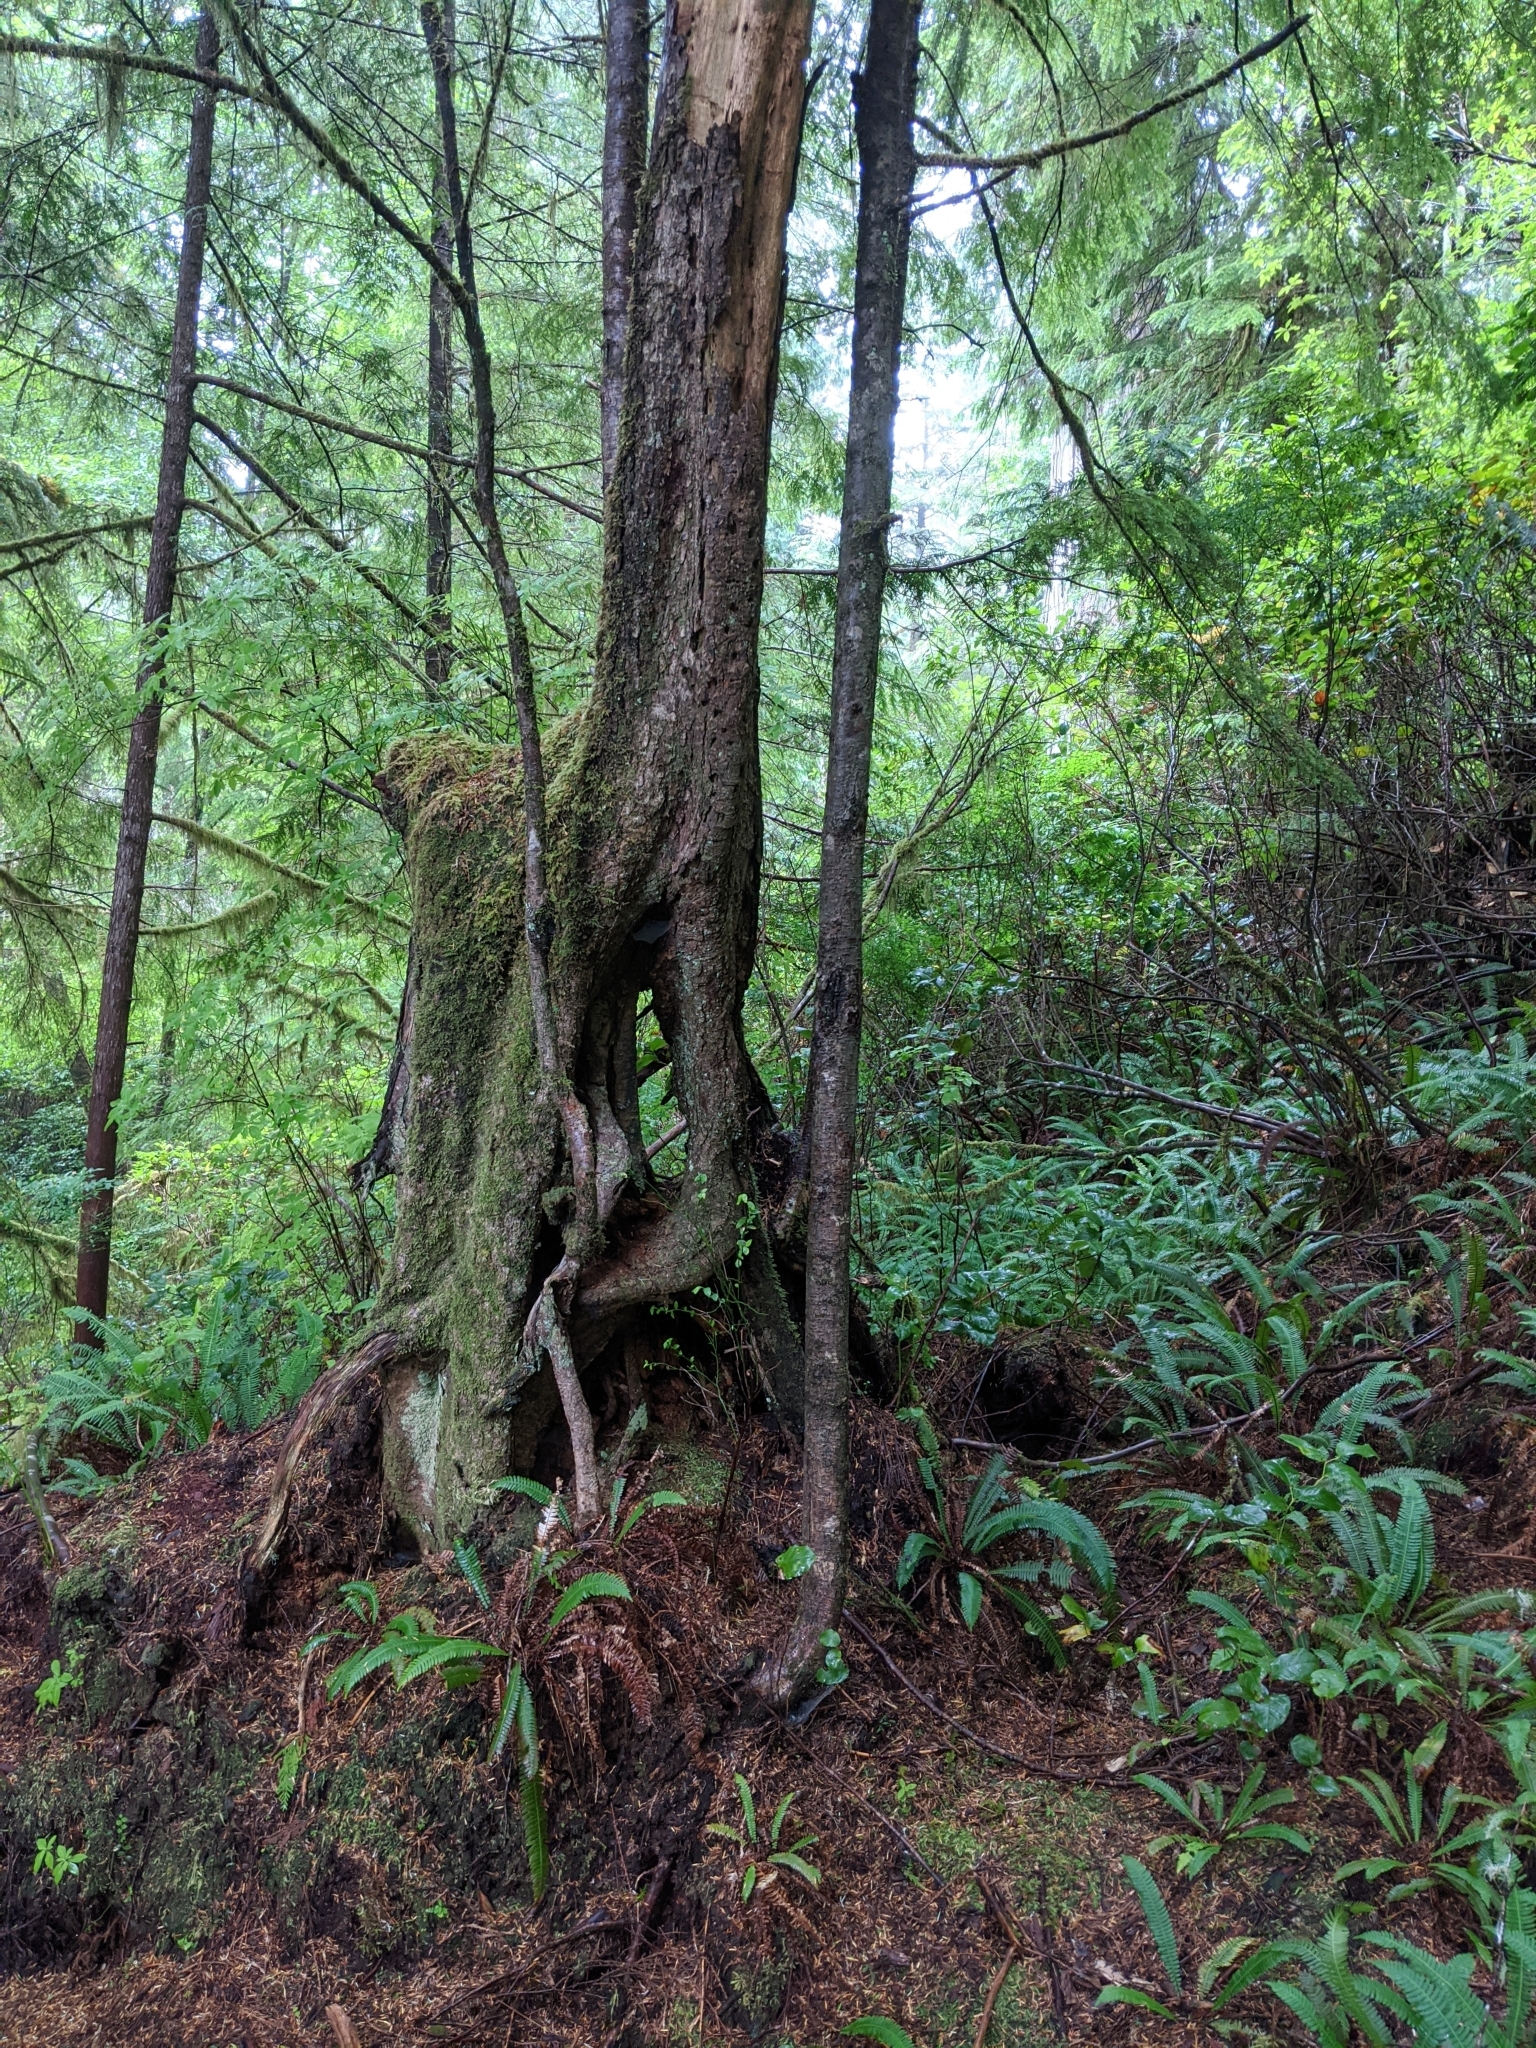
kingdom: Plantae
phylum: Tracheophyta
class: Pinopsida
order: Pinales
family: Pinaceae
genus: Tsuga
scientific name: Tsuga heterophylla
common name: Western hemlock
